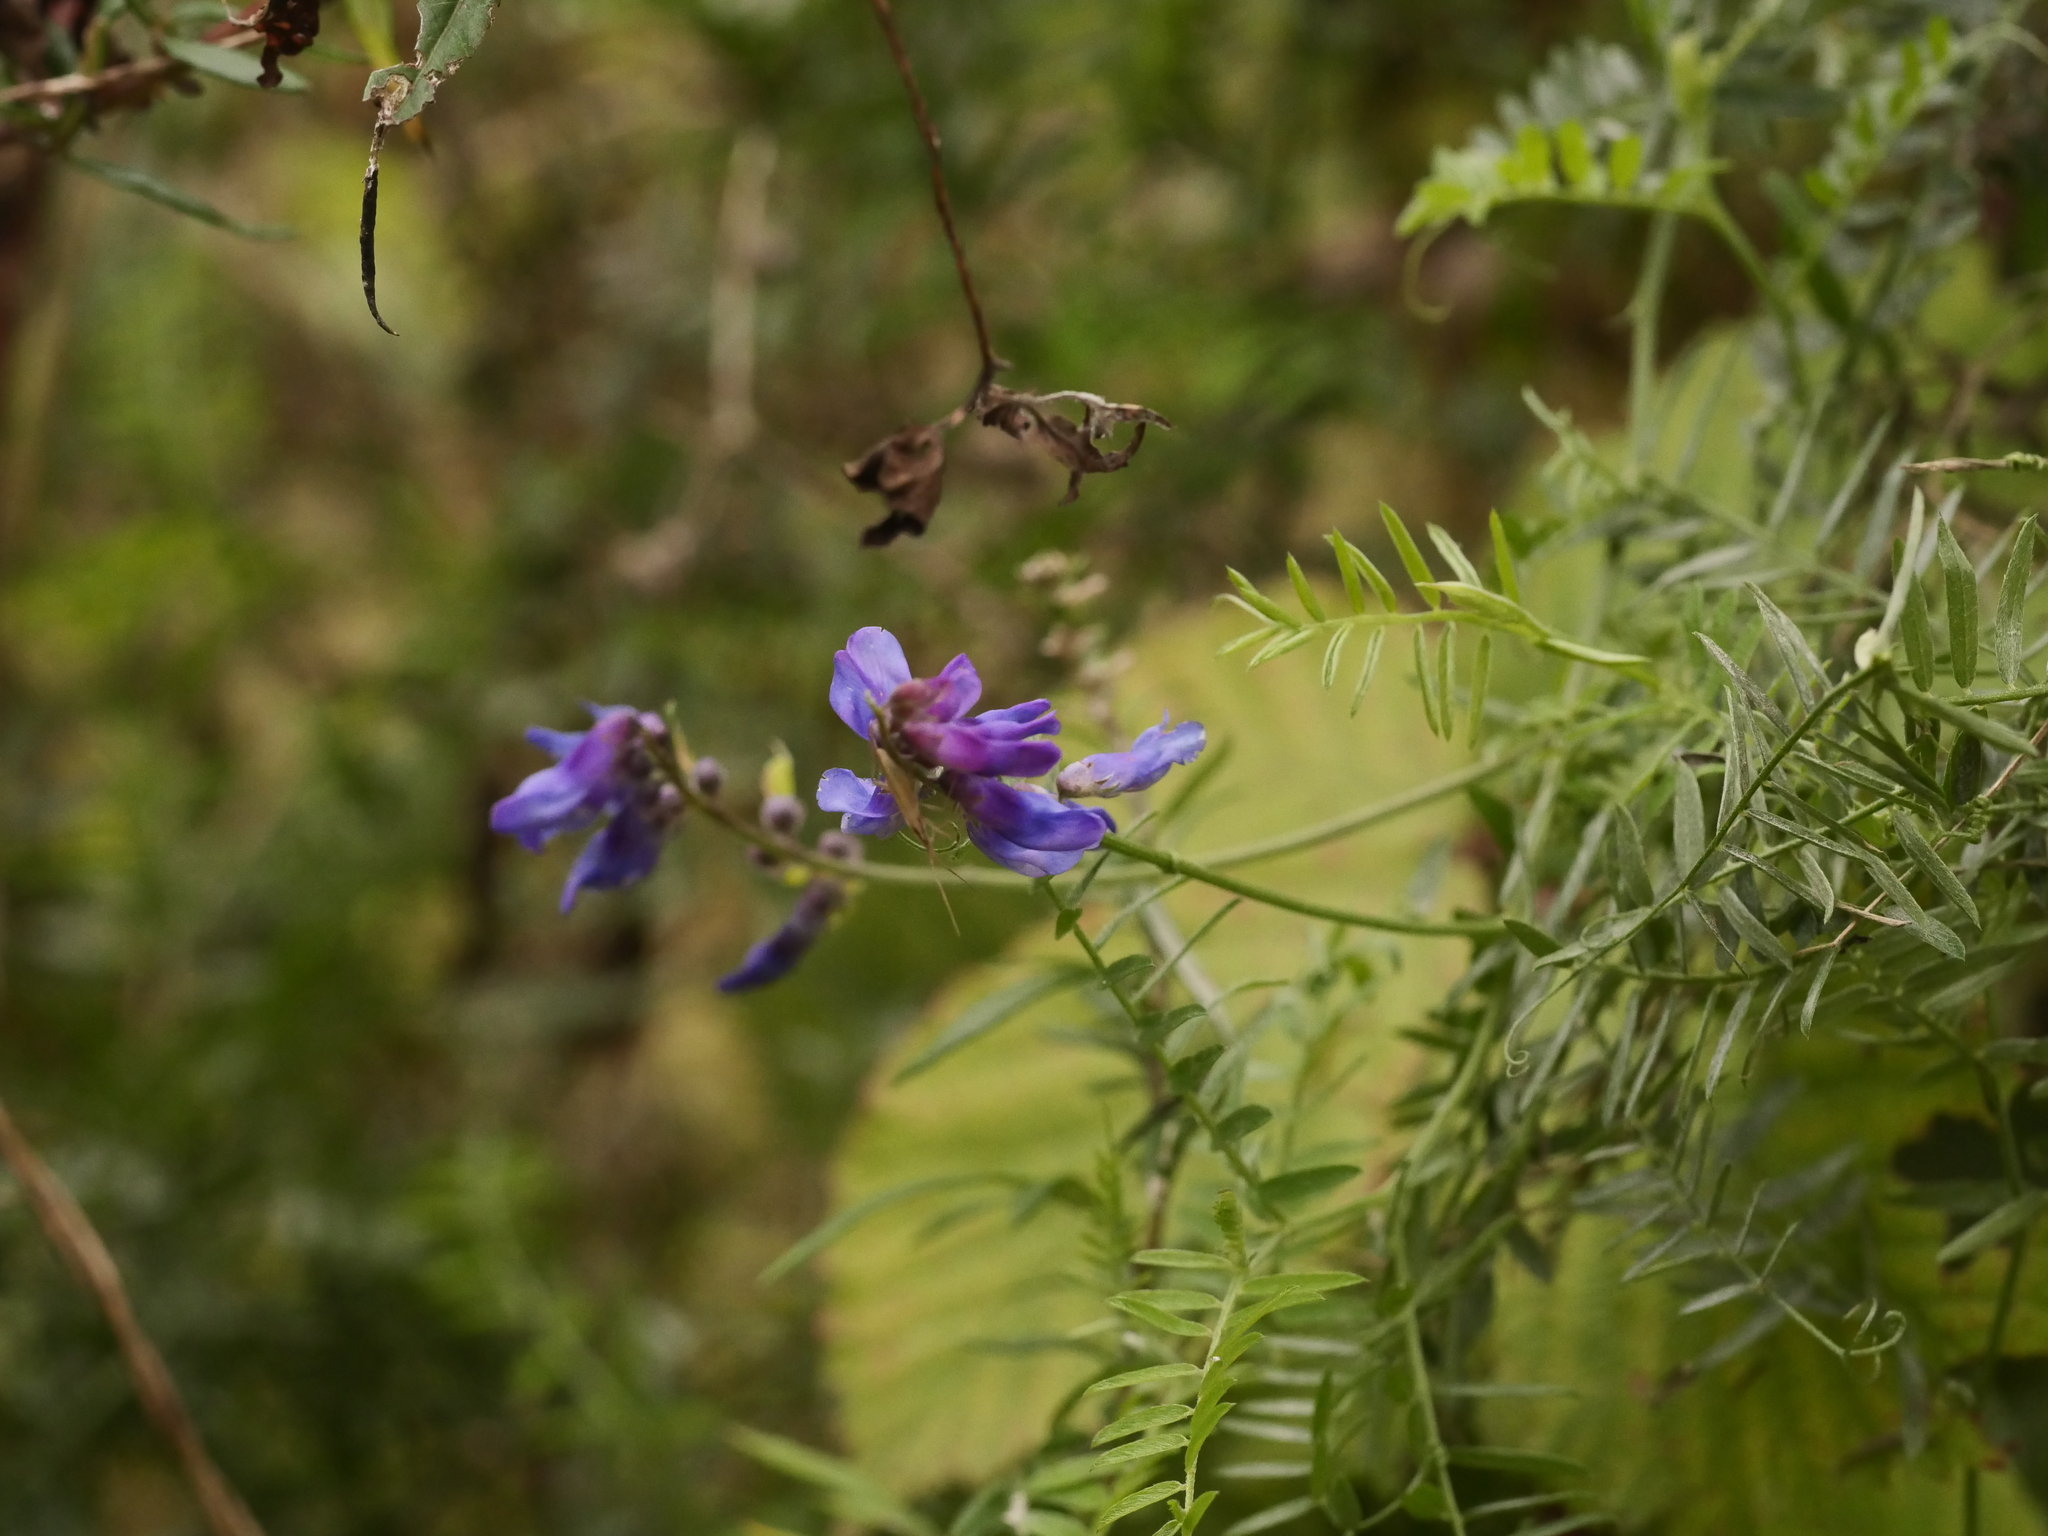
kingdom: Plantae
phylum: Tracheophyta
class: Magnoliopsida
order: Fabales
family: Fabaceae
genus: Vicia
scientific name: Vicia cracca
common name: Bird vetch
